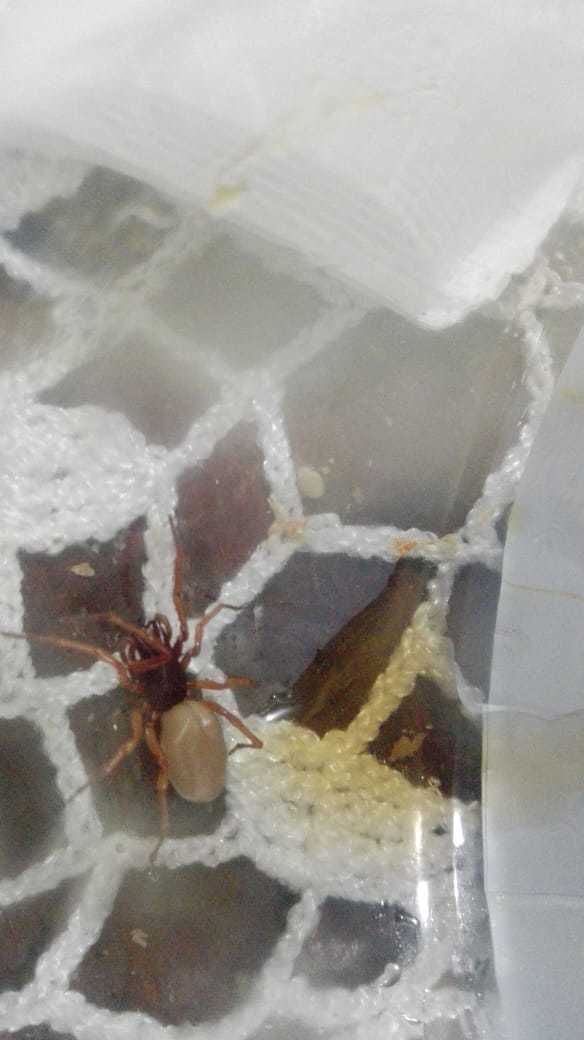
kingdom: Animalia
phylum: Arthropoda
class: Arachnida
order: Araneae
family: Dysderidae
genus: Dysdera
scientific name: Dysdera crocata
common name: Woodlouse spider
